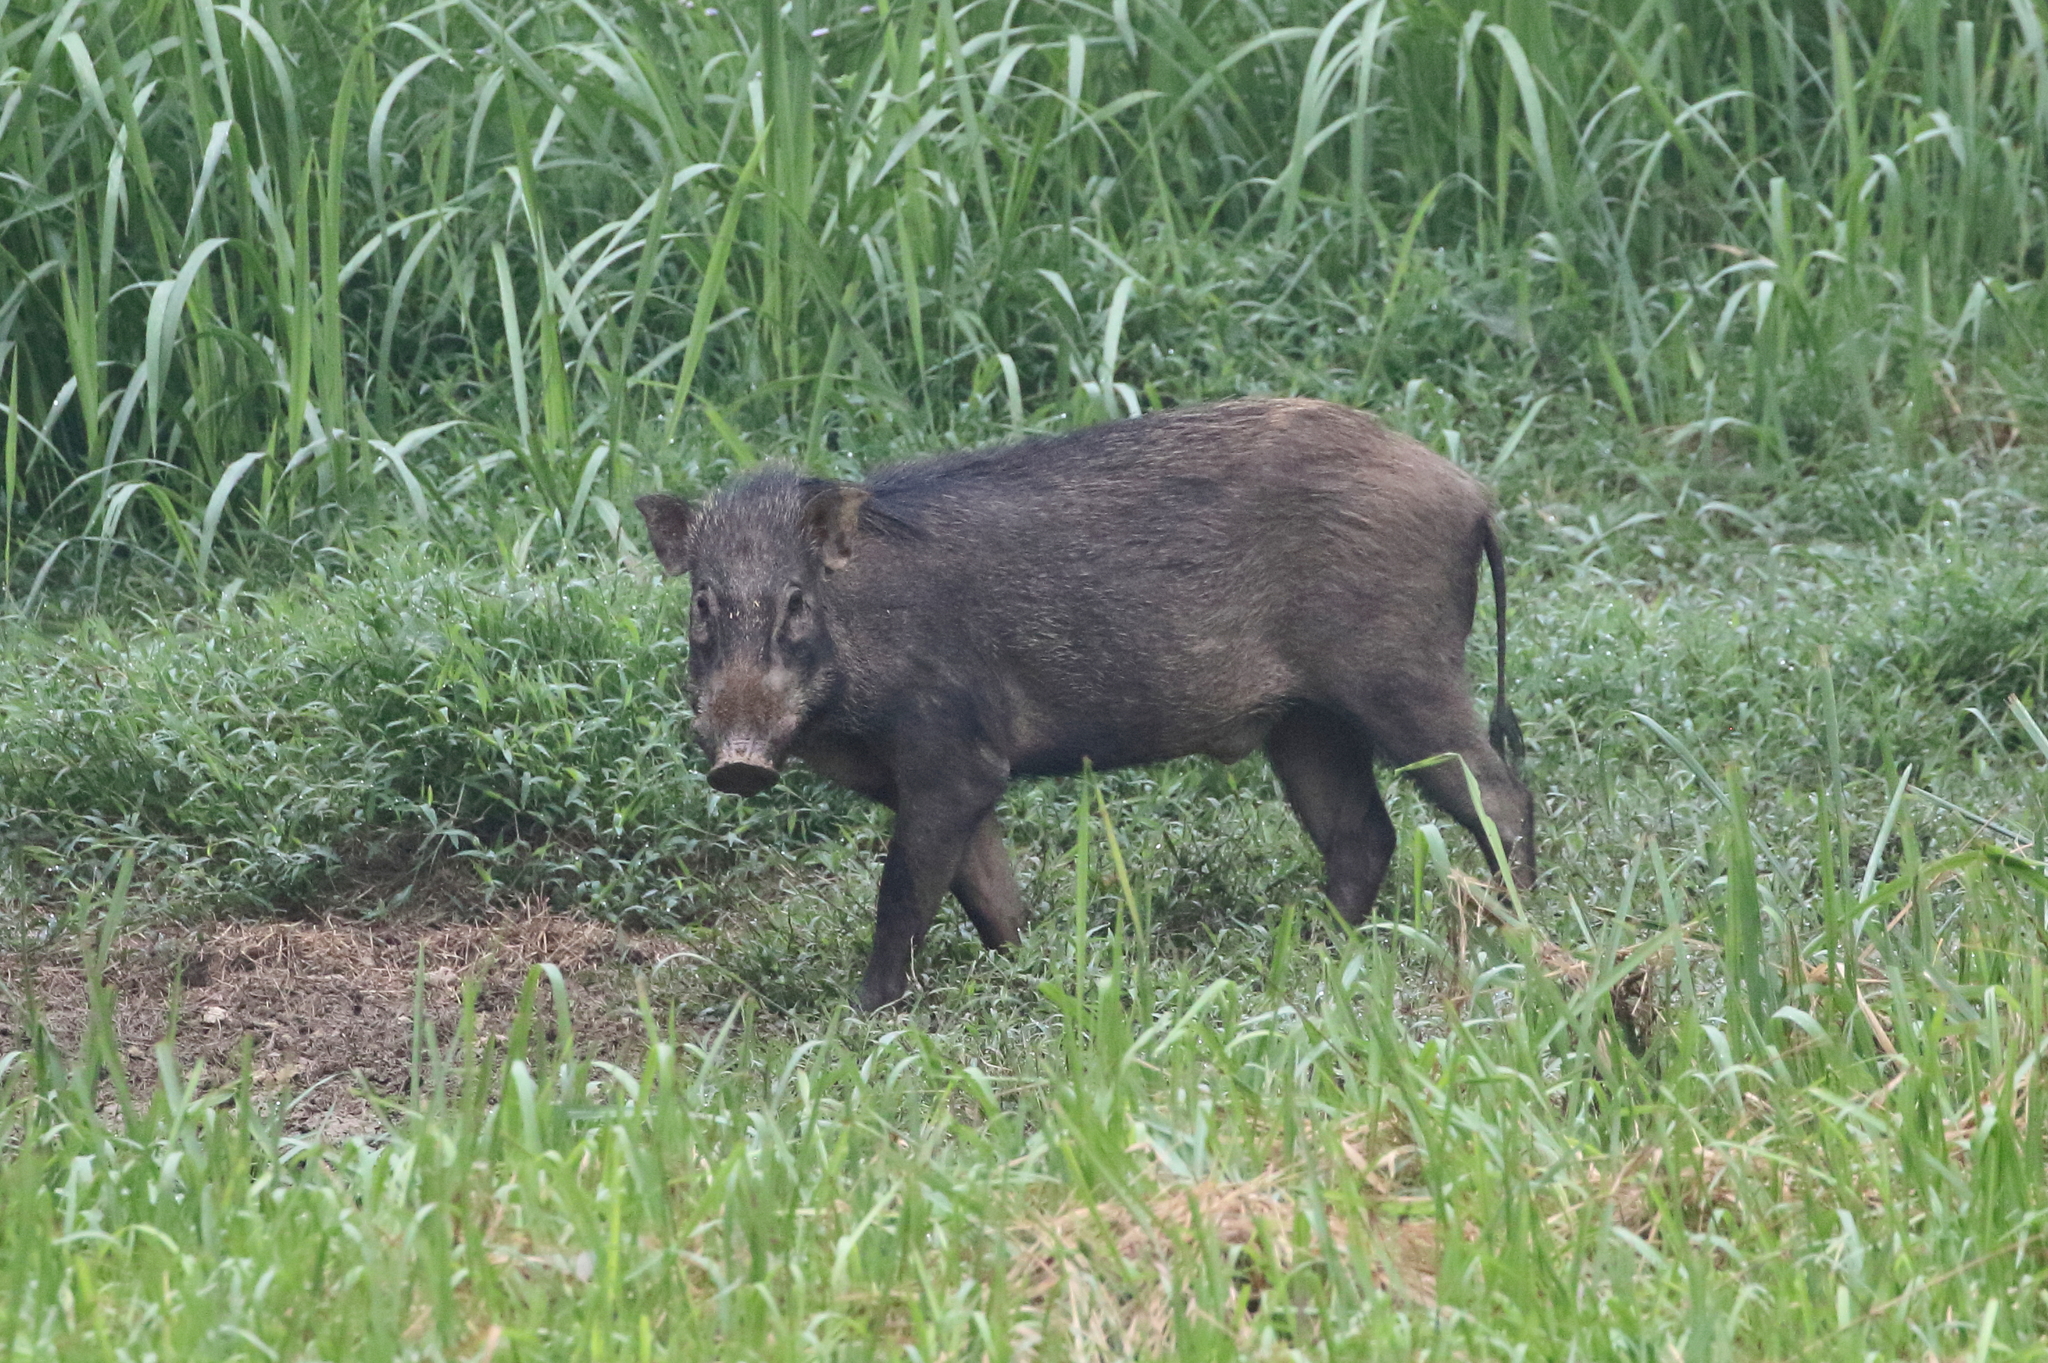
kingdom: Animalia
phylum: Chordata
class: Mammalia
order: Artiodactyla
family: Suidae
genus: Sus
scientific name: Sus scrofa
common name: Wild boar
